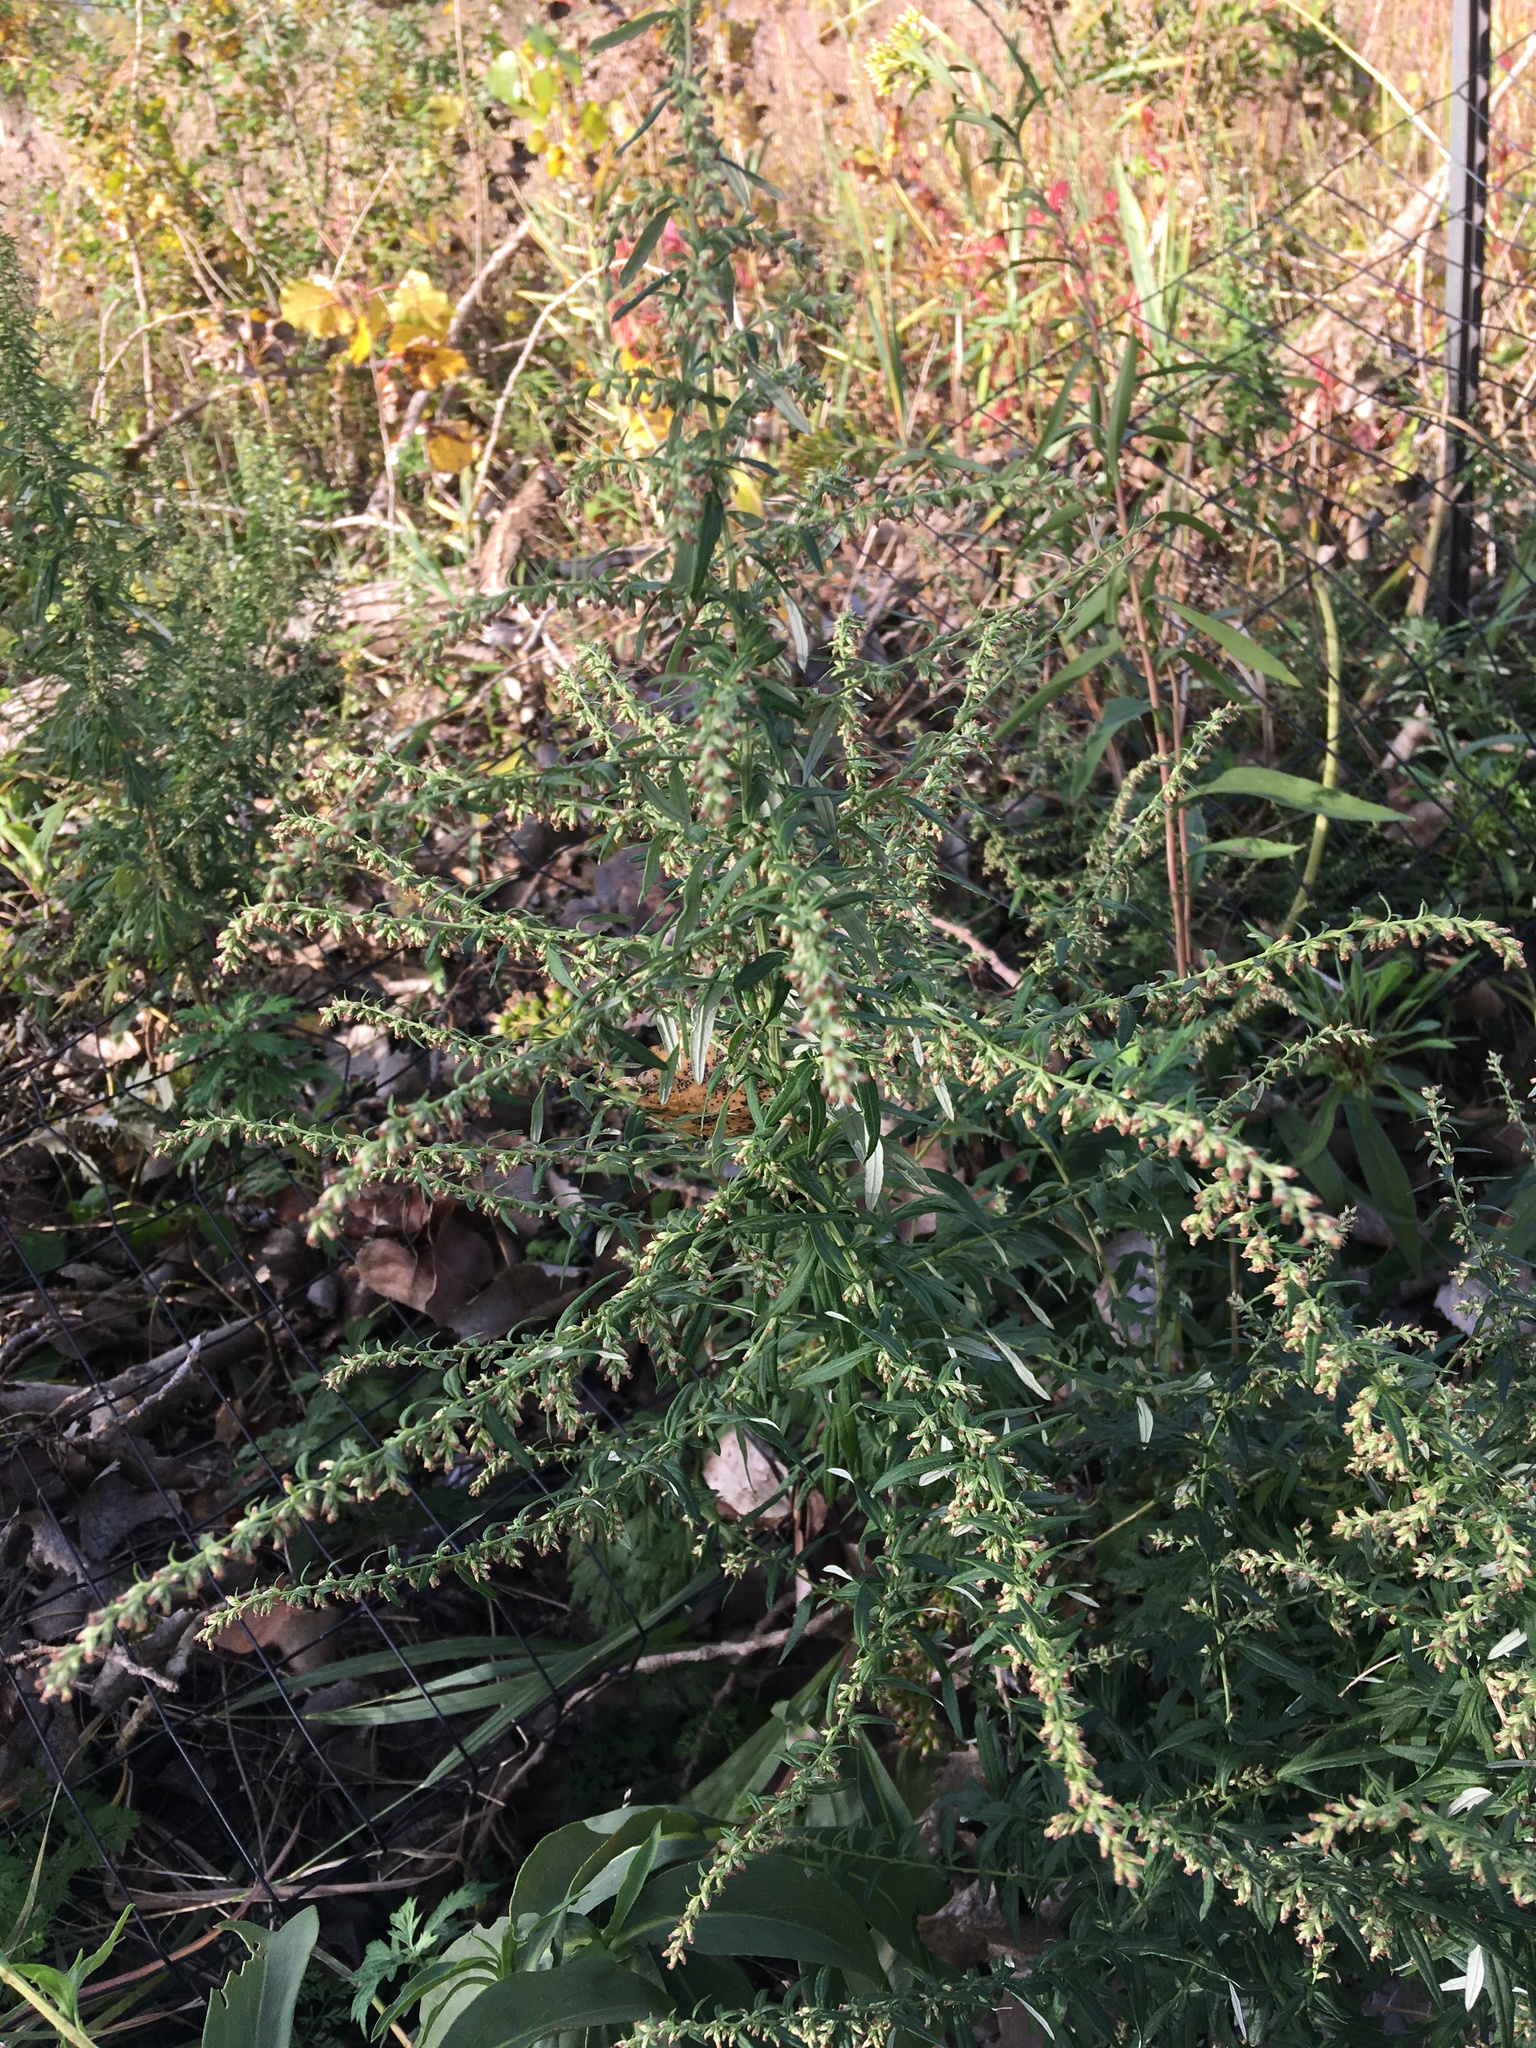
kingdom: Plantae
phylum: Tracheophyta
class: Magnoliopsida
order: Asterales
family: Asteraceae
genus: Artemisia
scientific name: Artemisia vulgaris
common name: Mugwort
